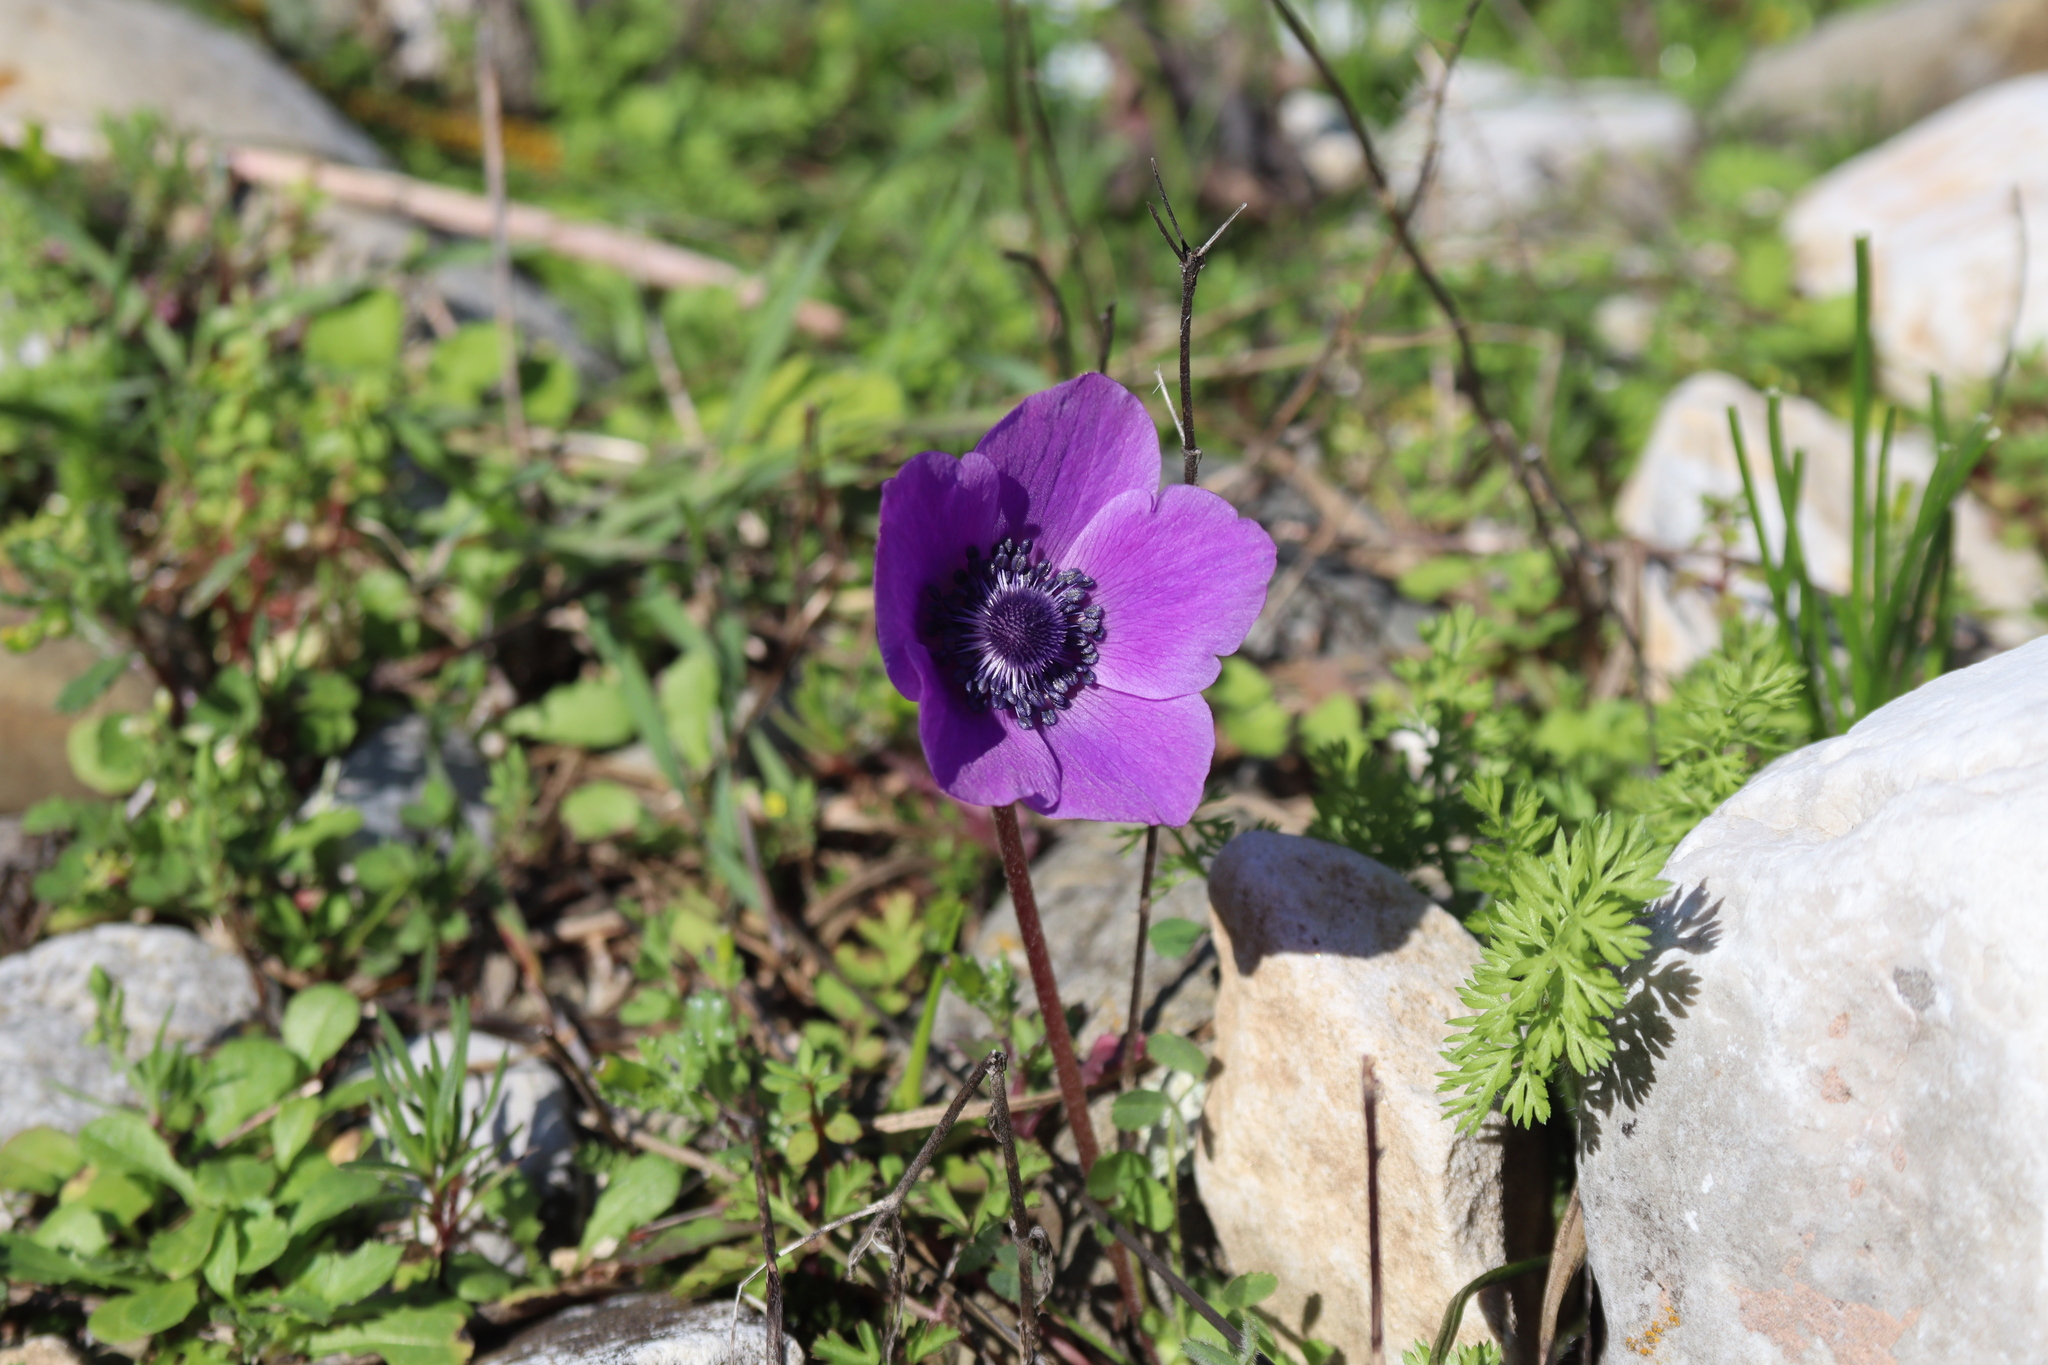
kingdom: Plantae
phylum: Tracheophyta
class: Magnoliopsida
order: Ranunculales
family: Ranunculaceae
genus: Anemone
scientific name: Anemone coronaria
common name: Poppy anemone
